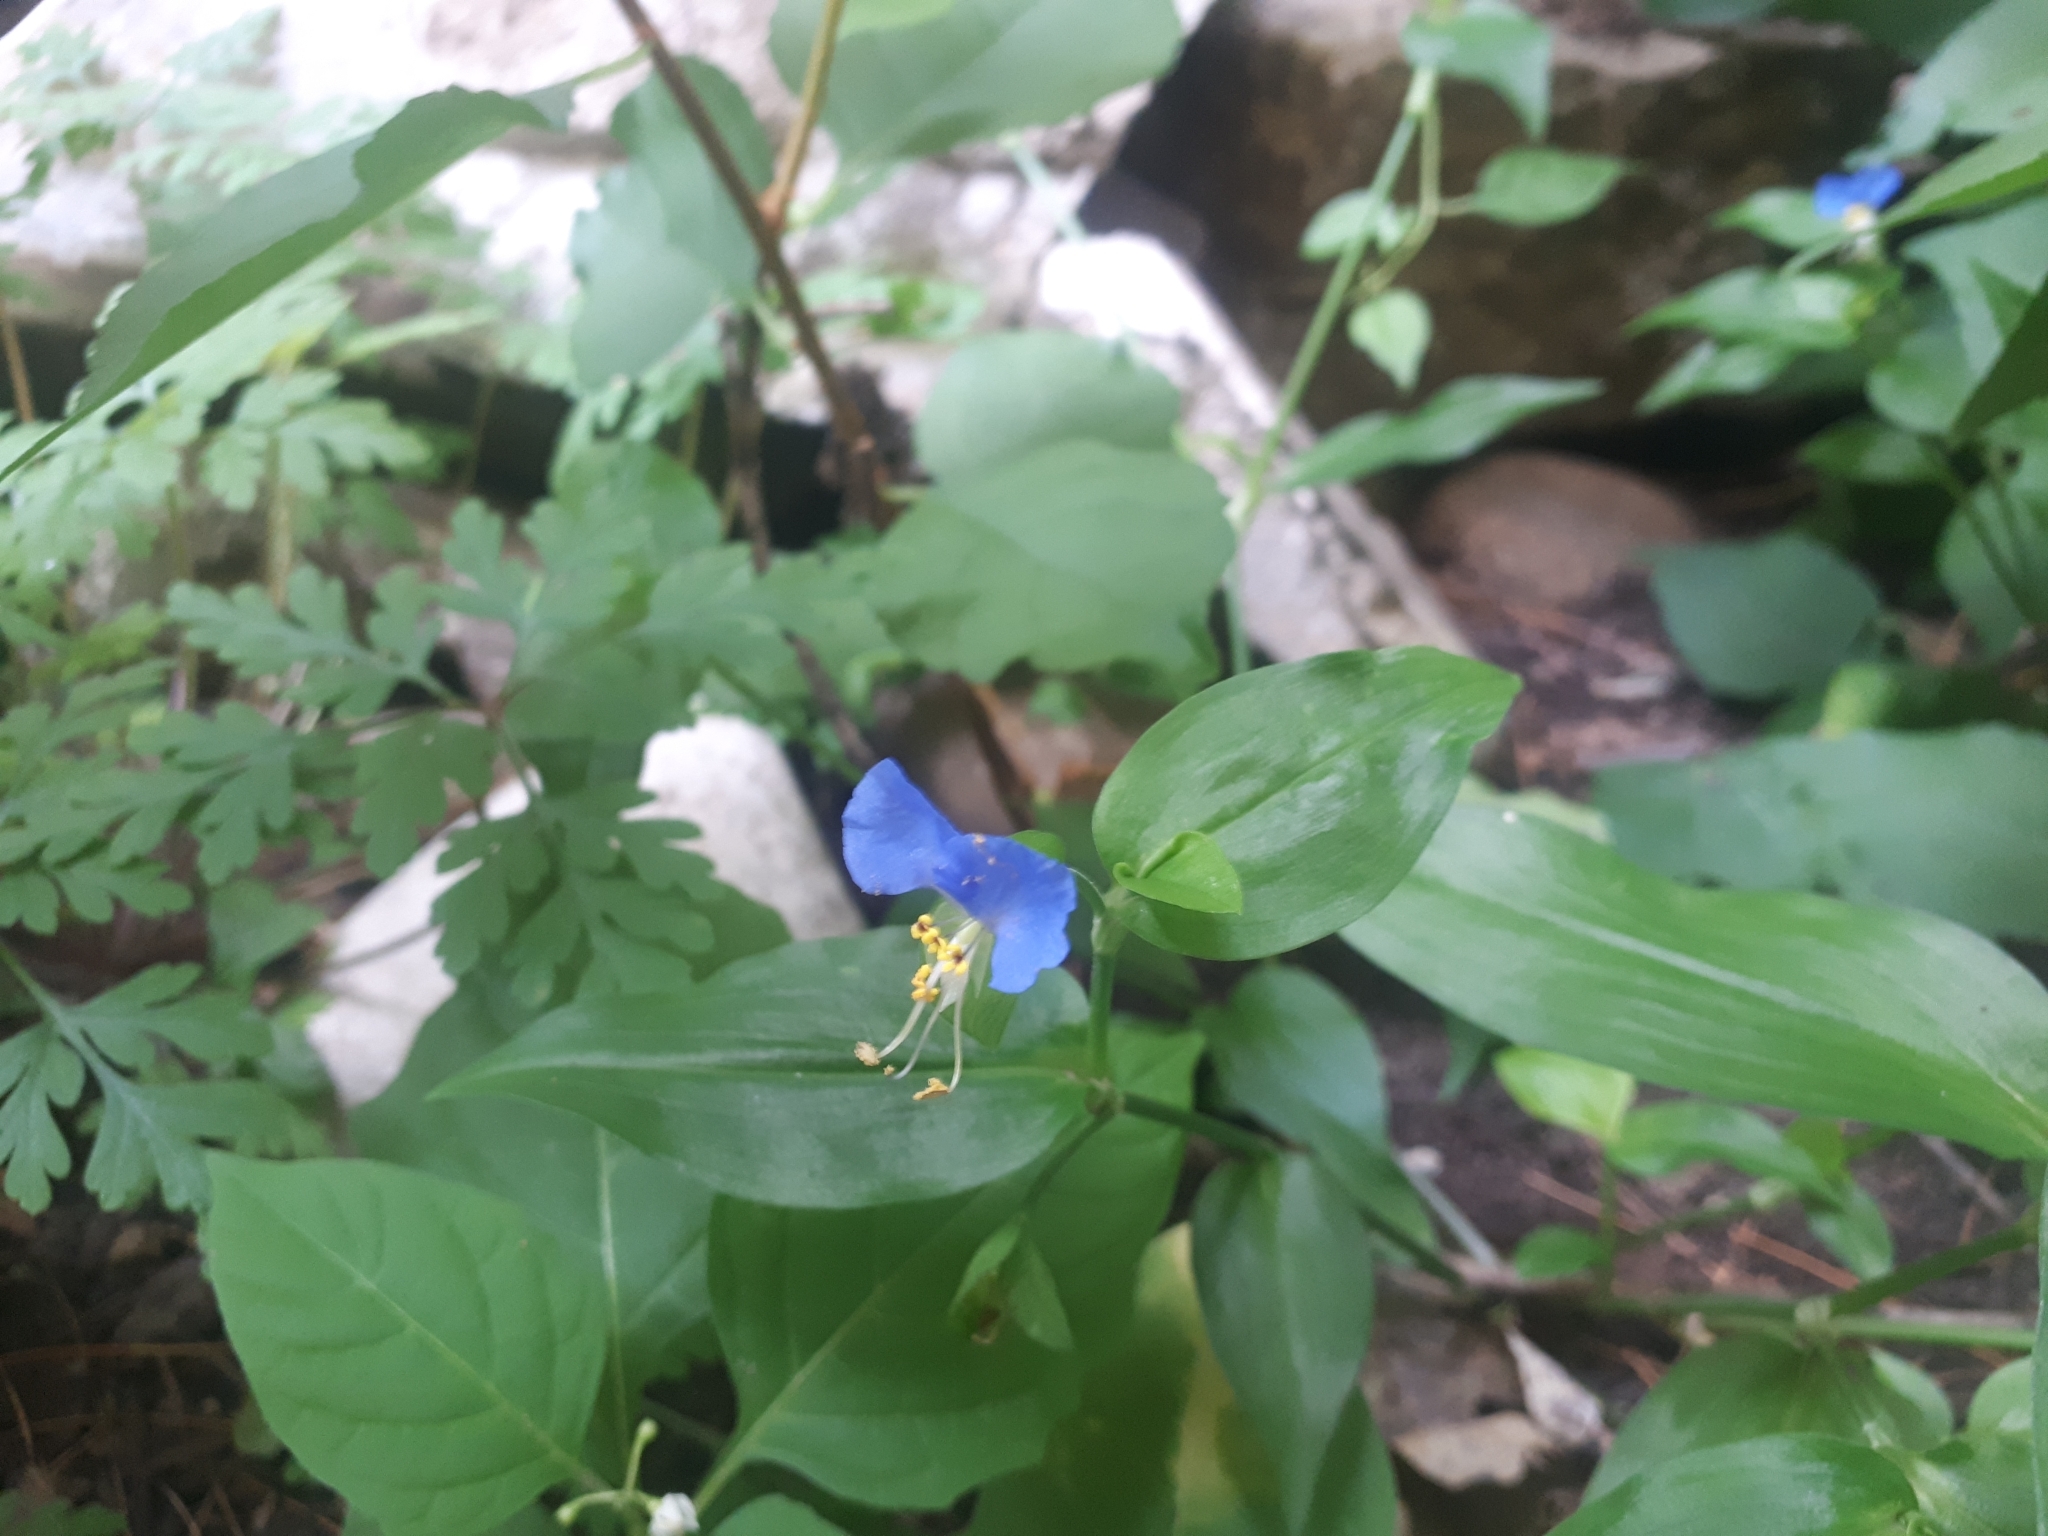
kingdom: Plantae
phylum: Tracheophyta
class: Liliopsida
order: Commelinales
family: Commelinaceae
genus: Commelina
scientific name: Commelina communis
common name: Asiatic dayflower
